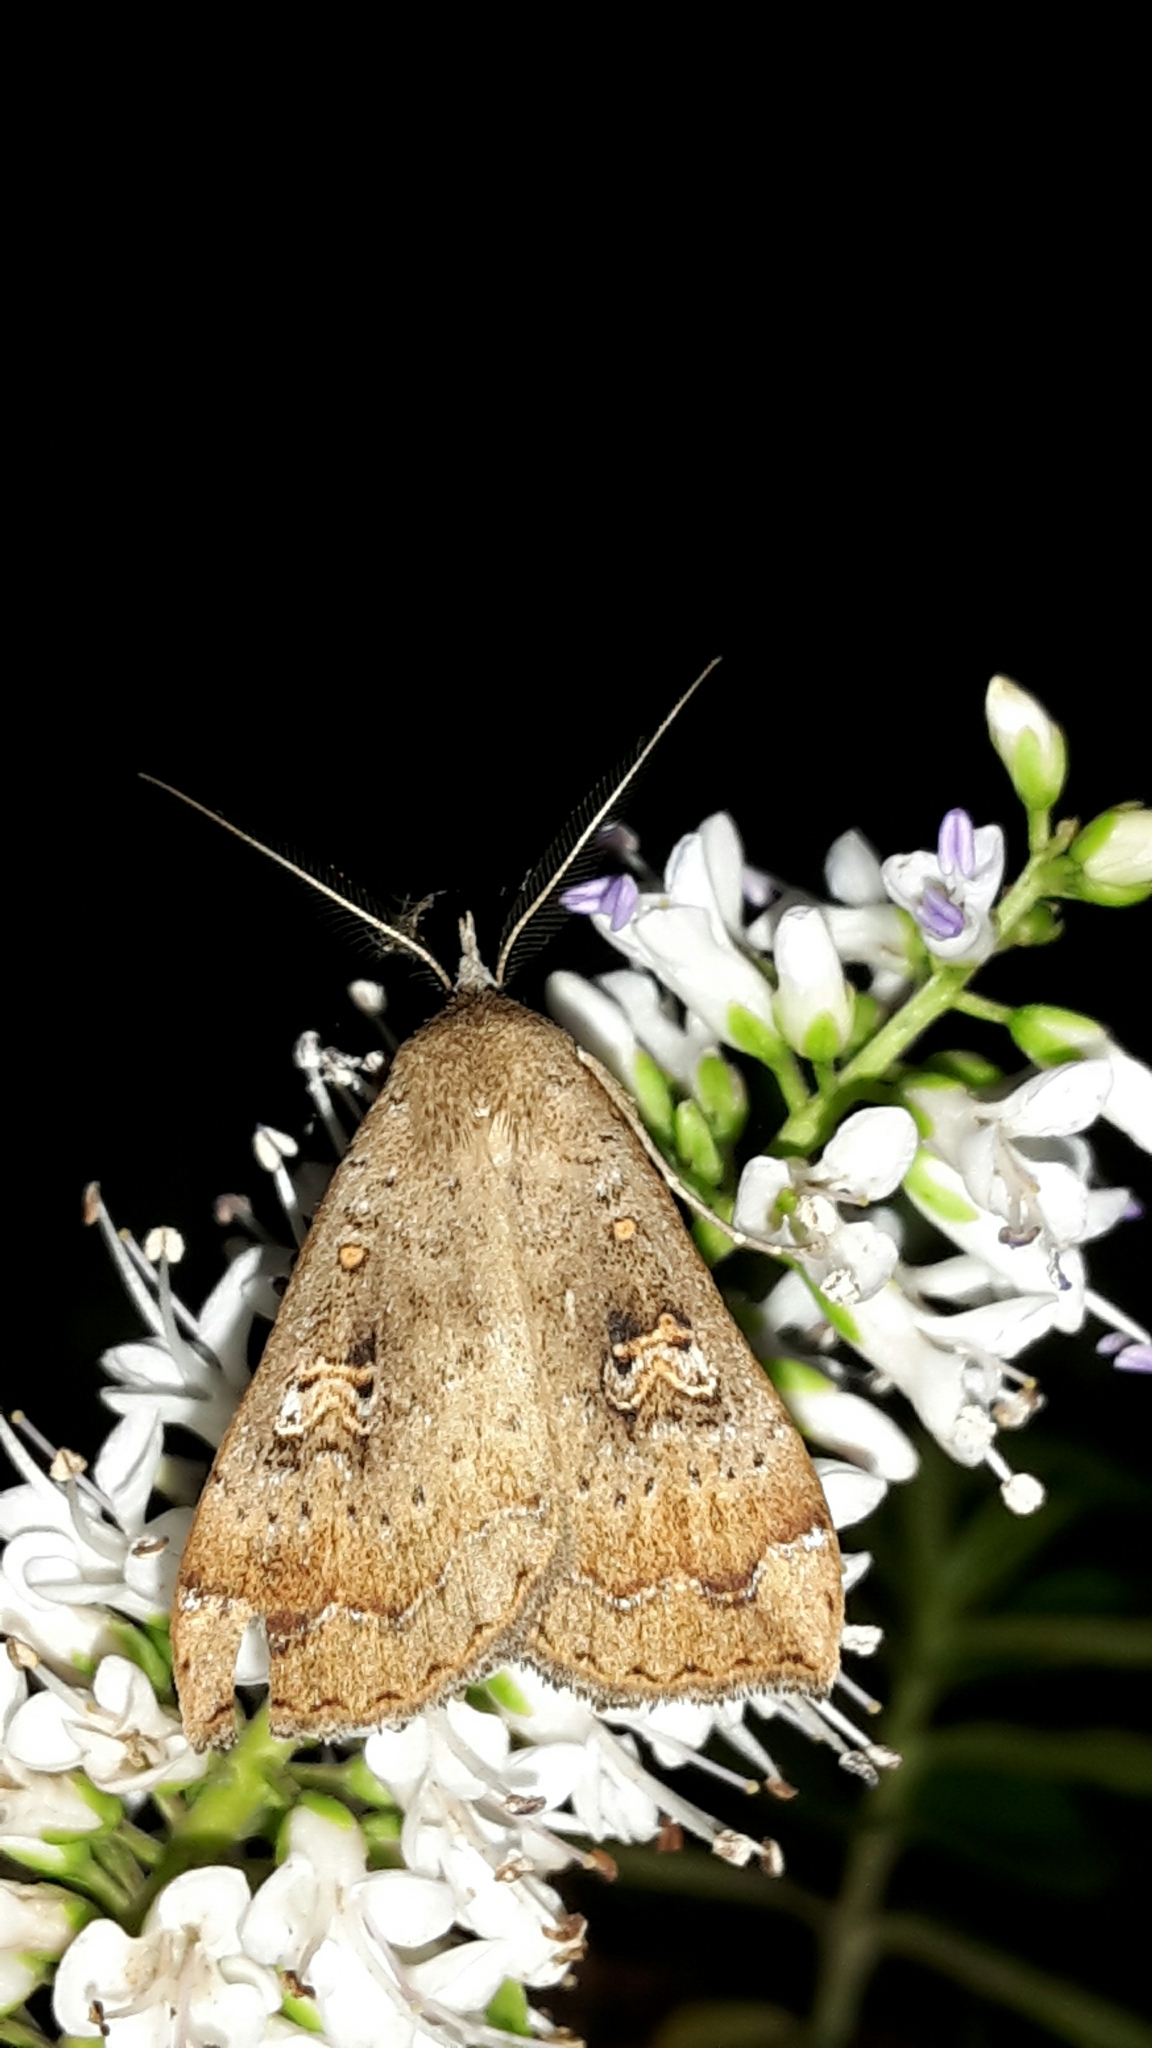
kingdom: Animalia
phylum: Arthropoda
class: Insecta
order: Lepidoptera
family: Erebidae
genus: Rhapsa
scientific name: Rhapsa scotosialis
